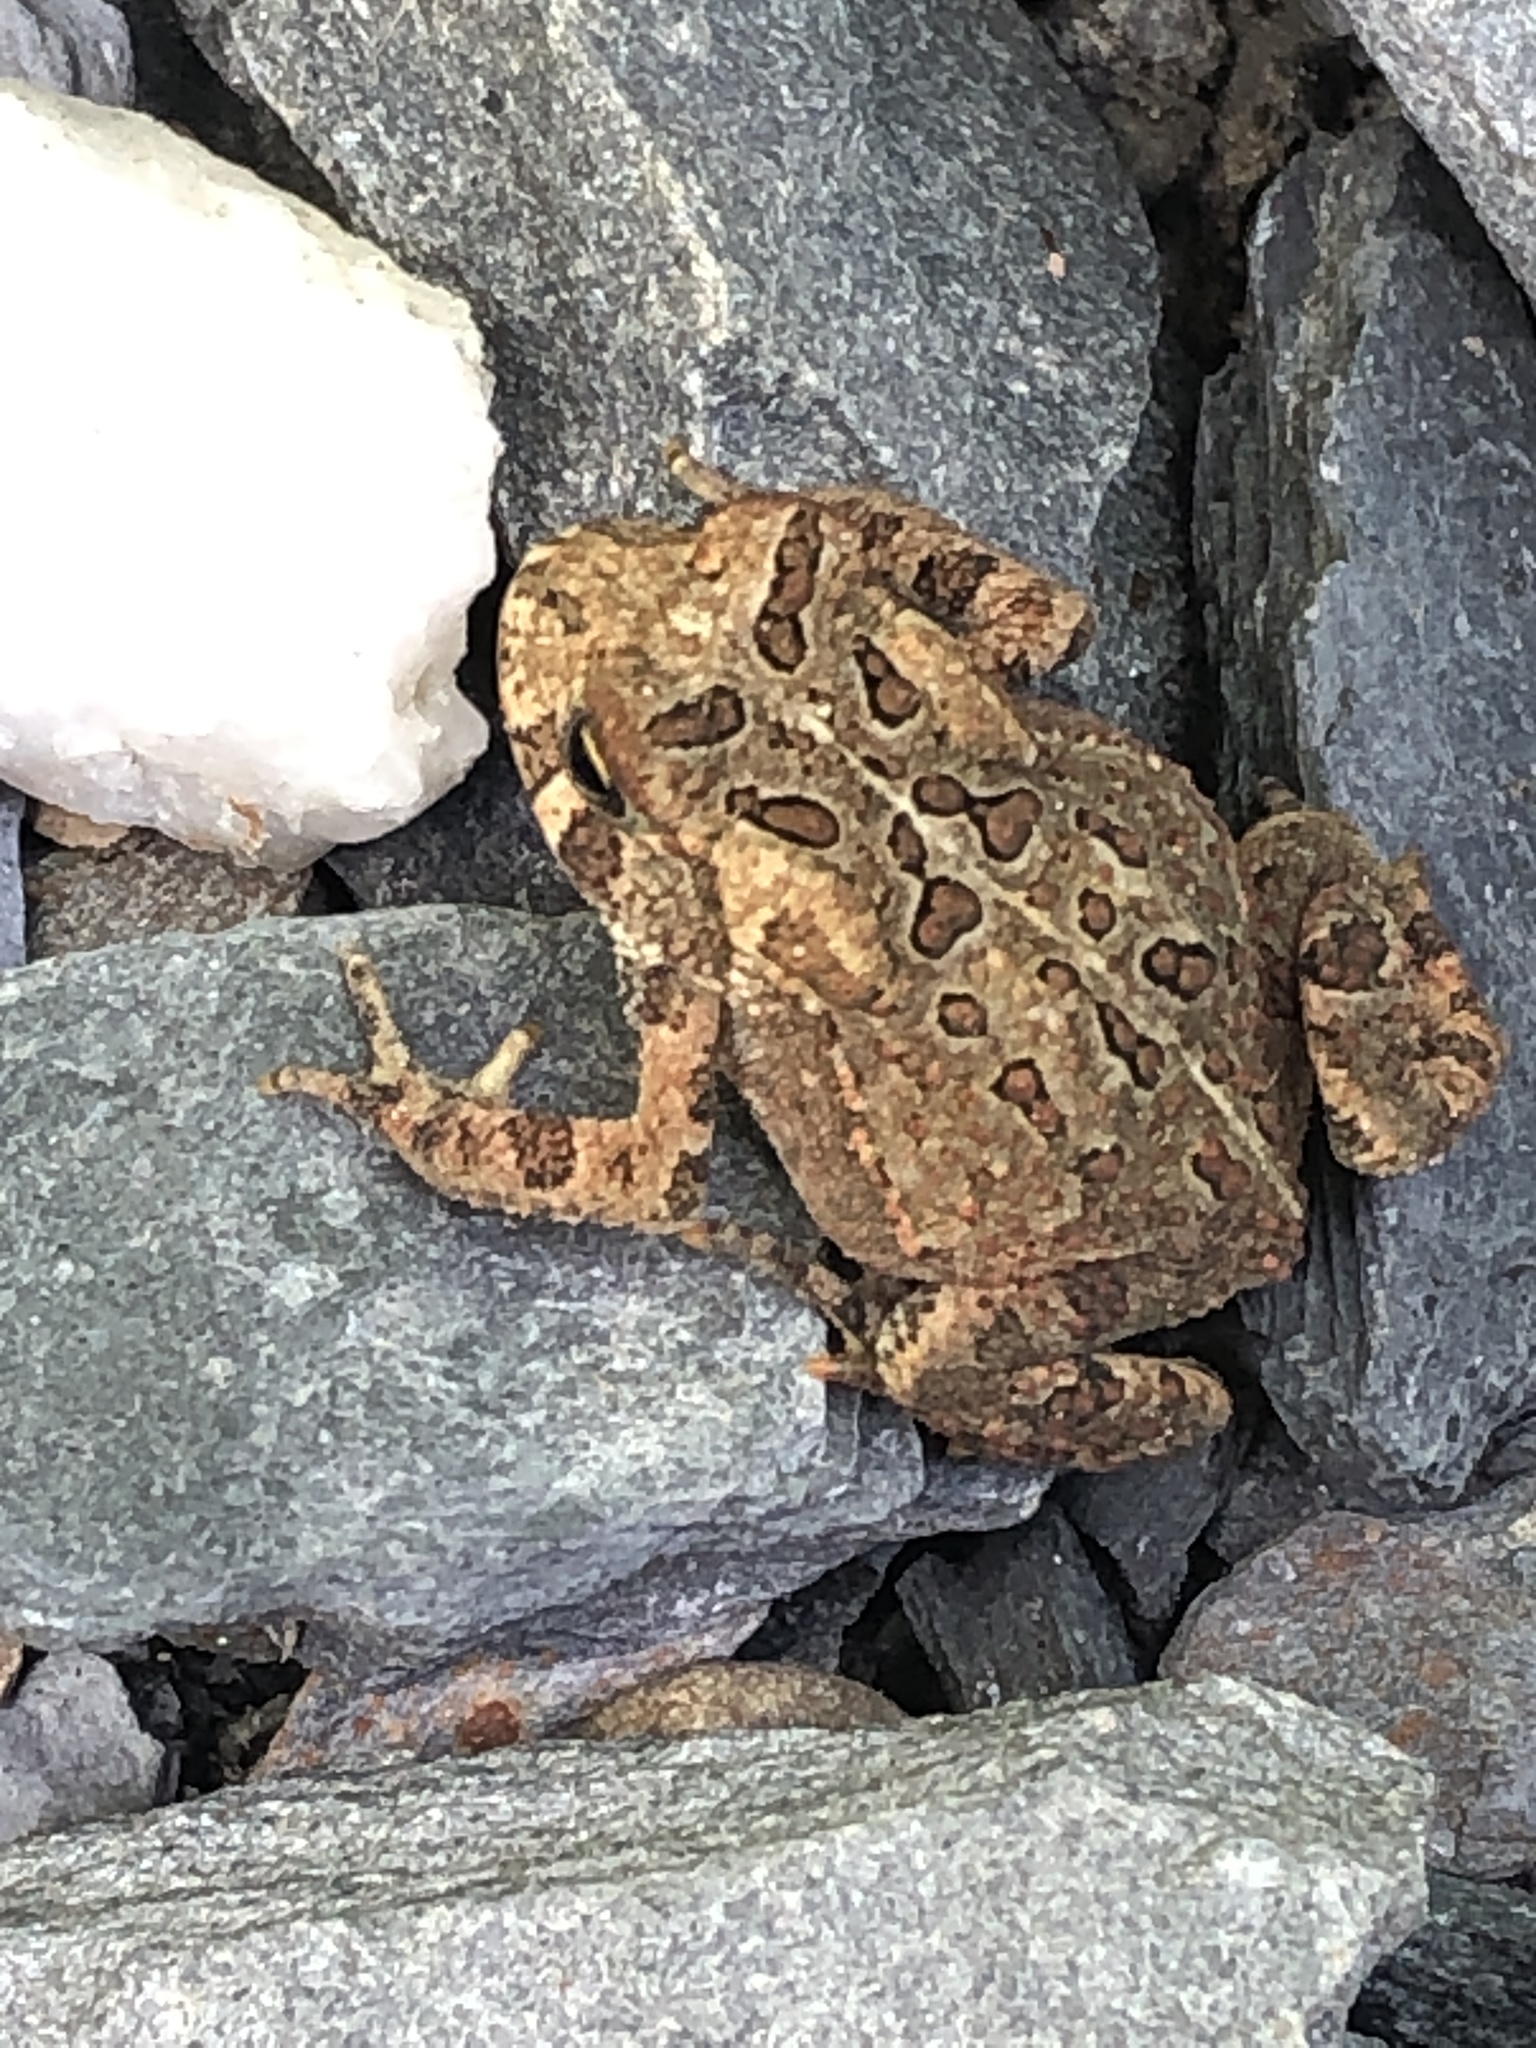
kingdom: Animalia
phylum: Chordata
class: Amphibia
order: Anura
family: Bufonidae
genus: Anaxyrus
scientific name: Anaxyrus americanus
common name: American toad
